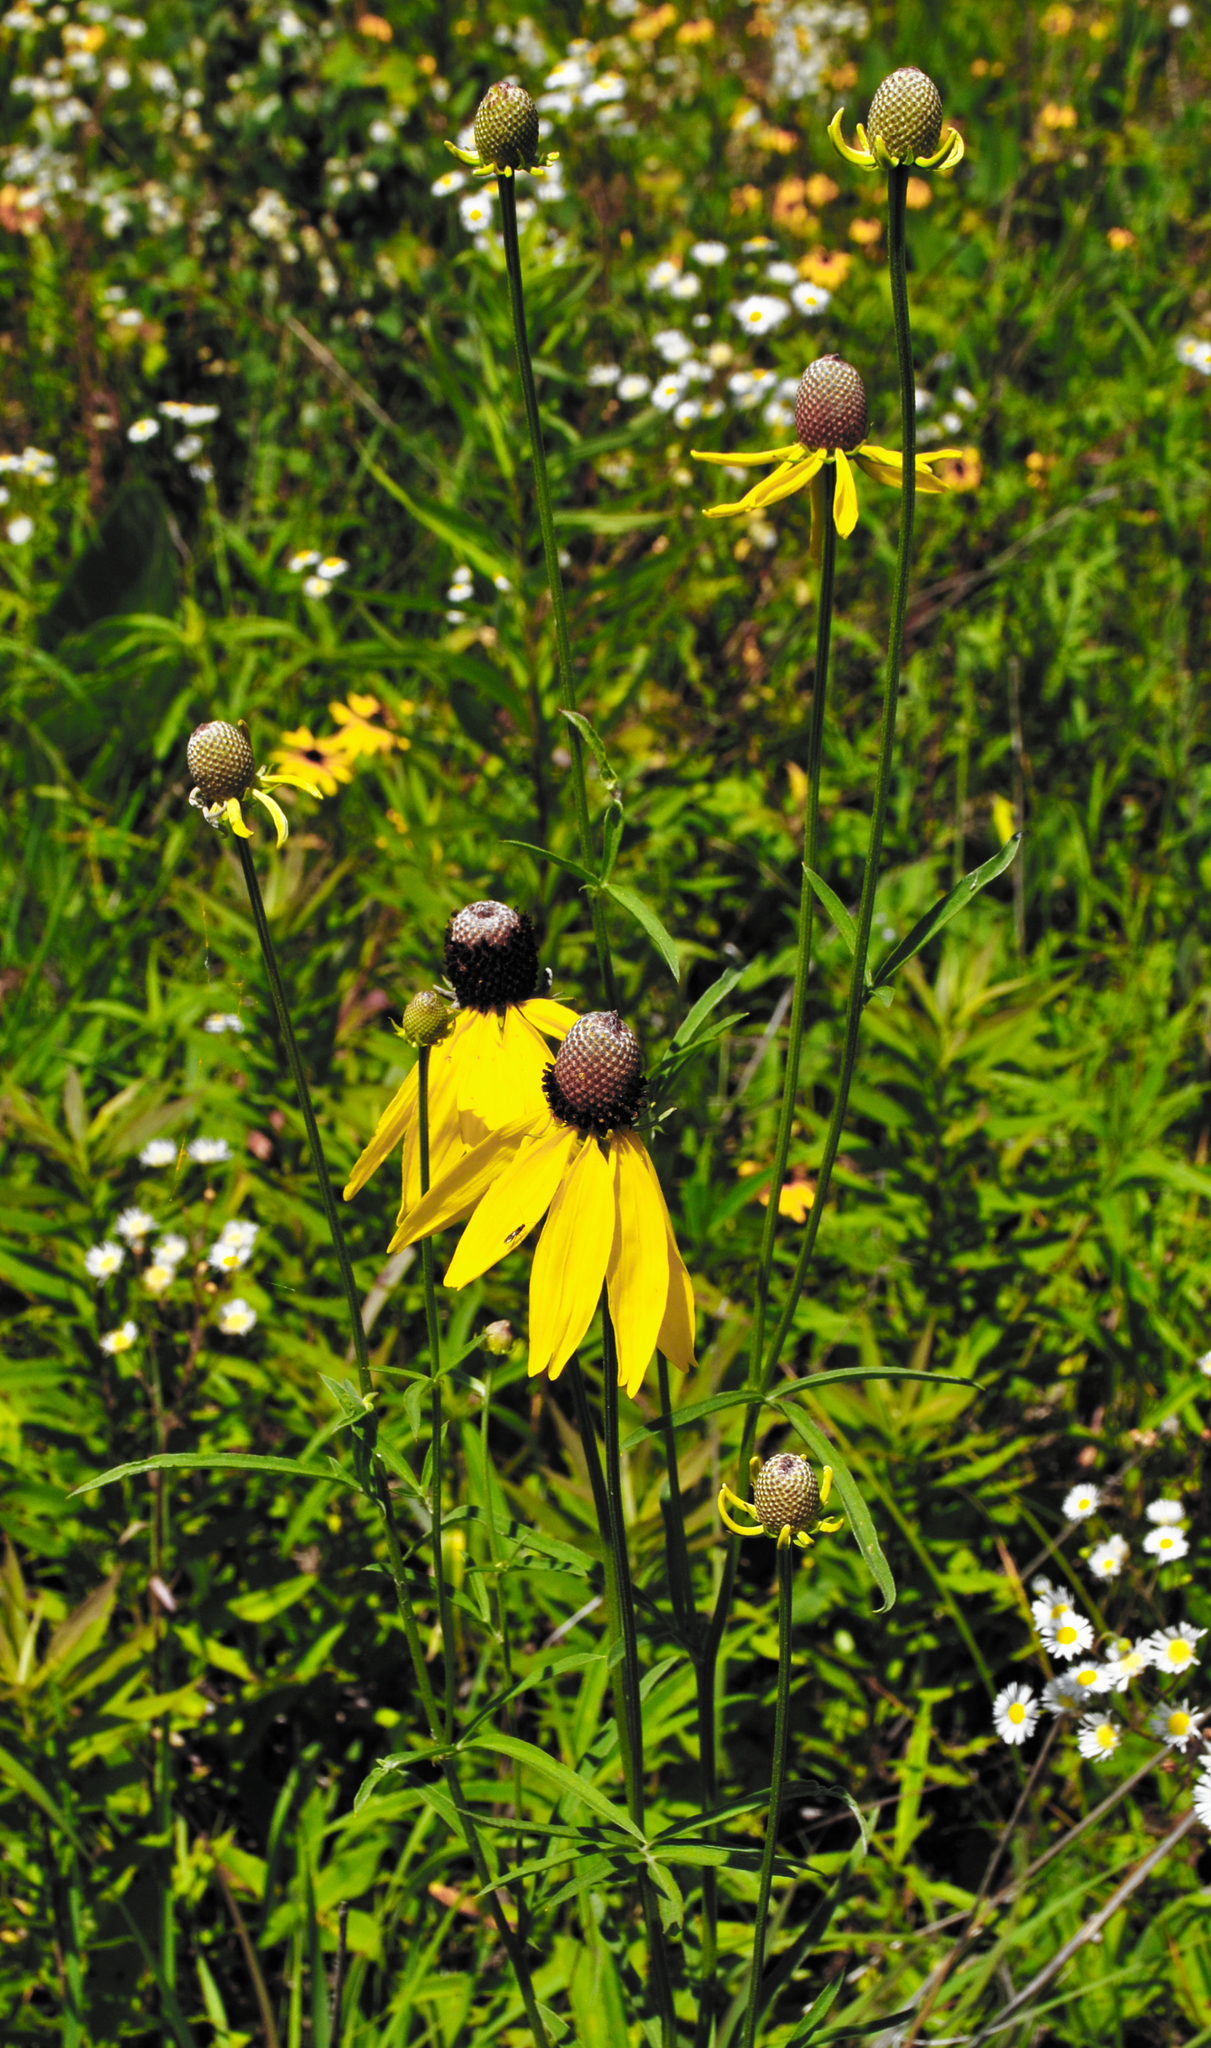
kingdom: Plantae
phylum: Tracheophyta
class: Magnoliopsida
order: Asterales
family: Asteraceae
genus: Ratibida
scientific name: Ratibida pinnata
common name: Drooping prairie-coneflower
